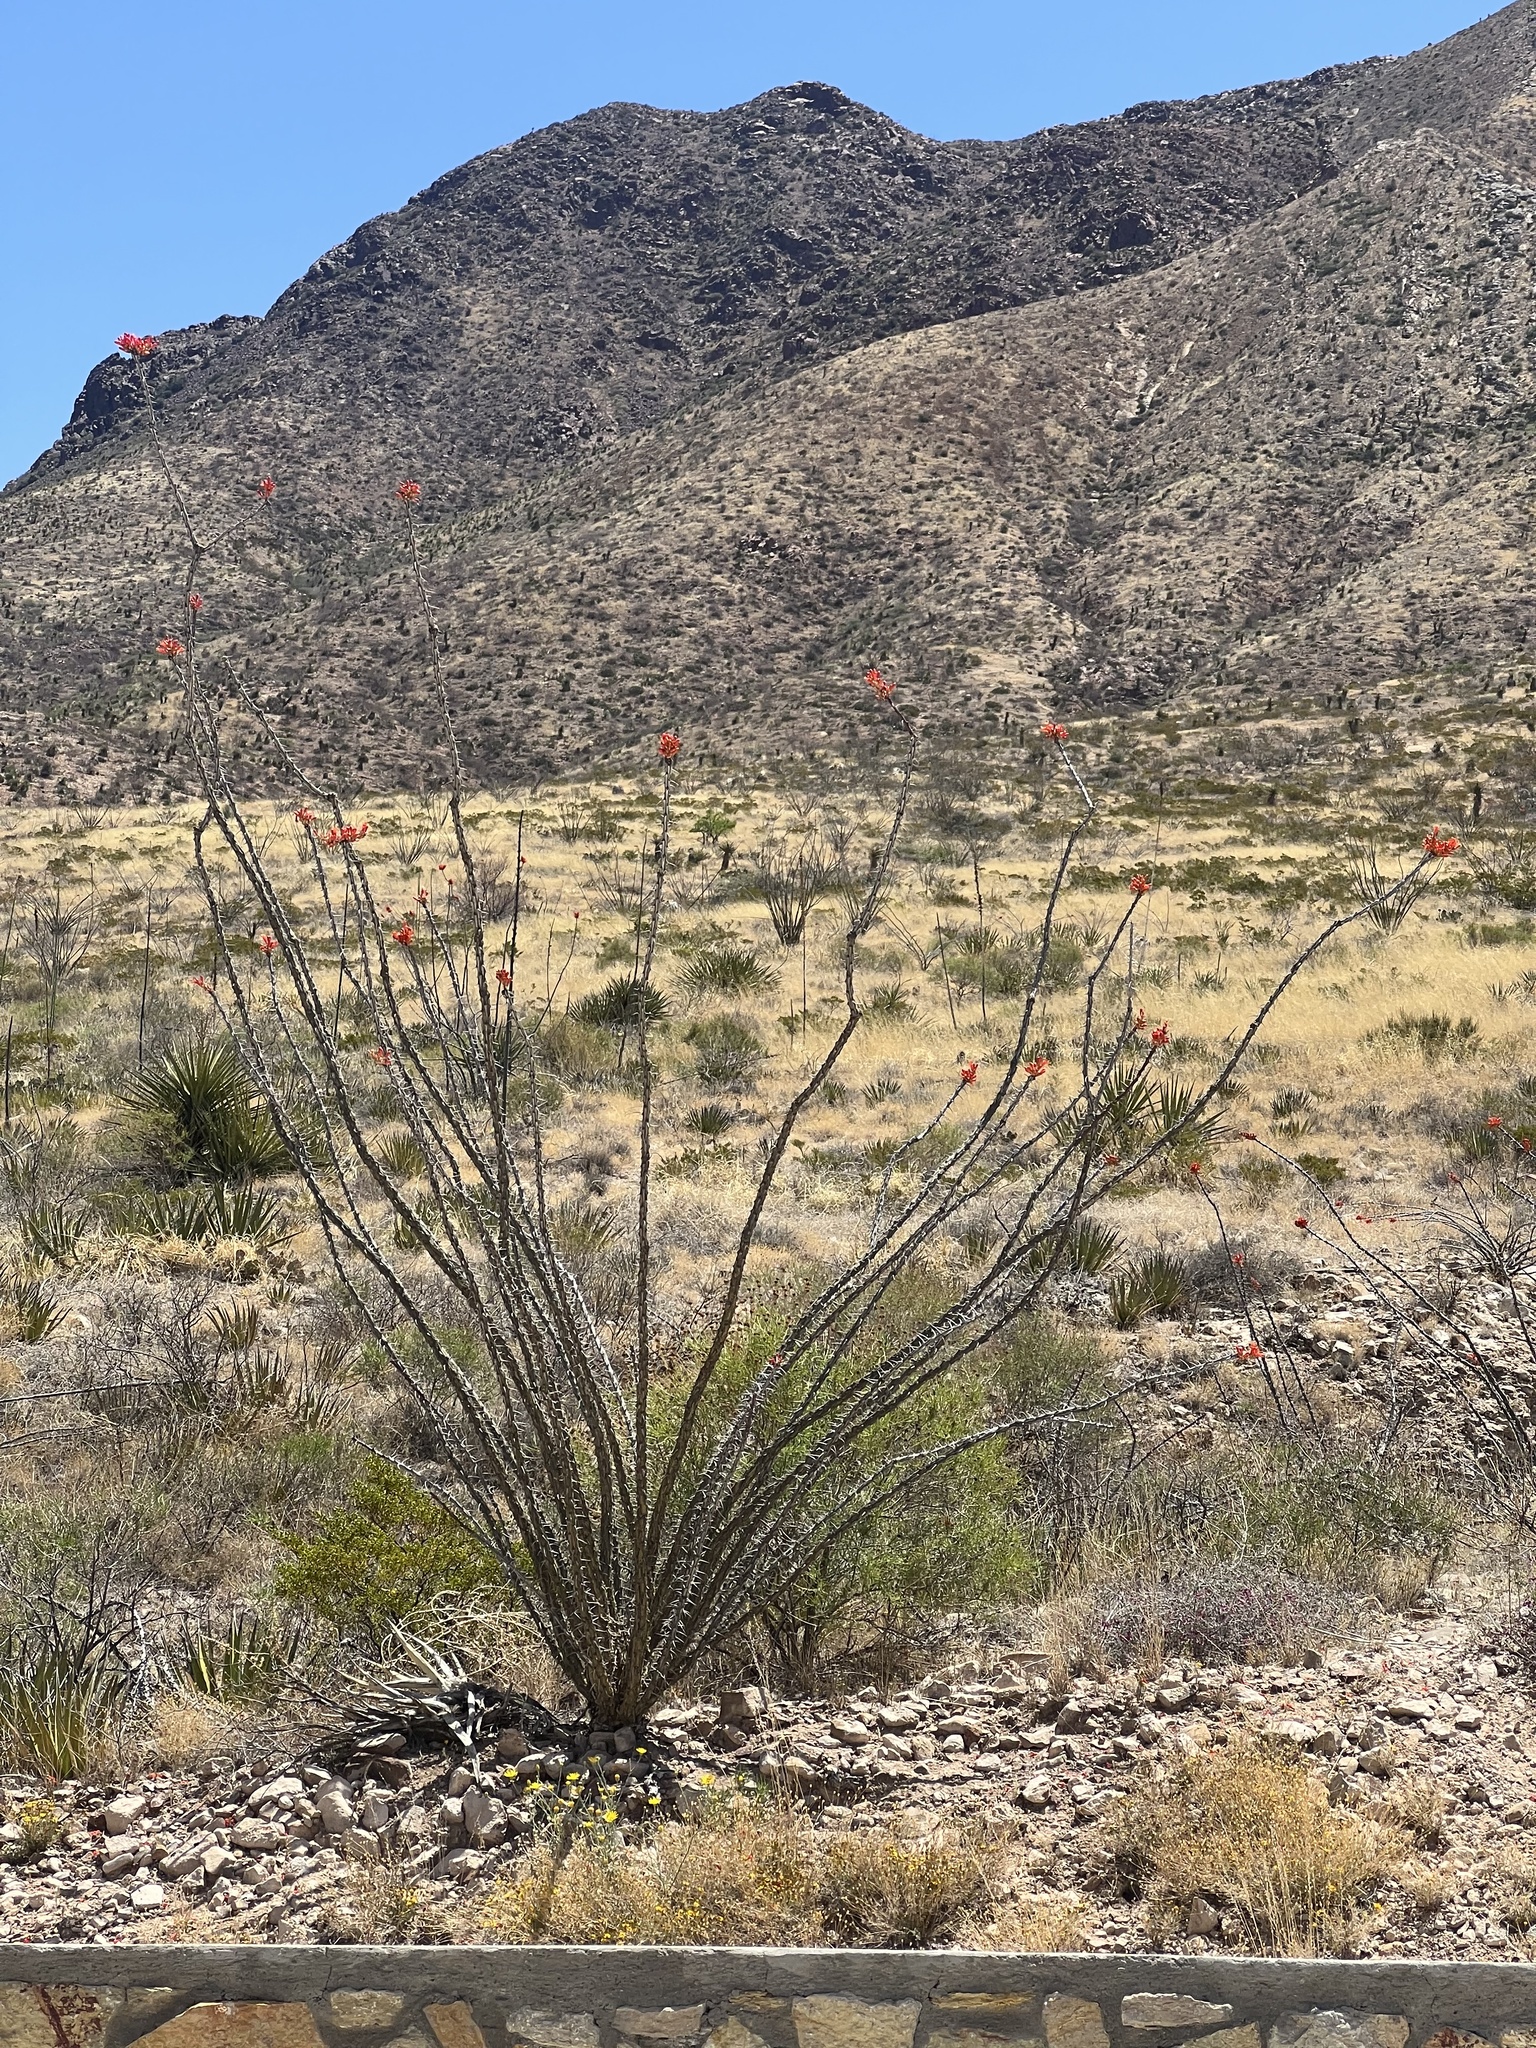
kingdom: Plantae
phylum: Tracheophyta
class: Magnoliopsida
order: Ericales
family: Fouquieriaceae
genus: Fouquieria
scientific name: Fouquieria splendens
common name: Vine-cactus
